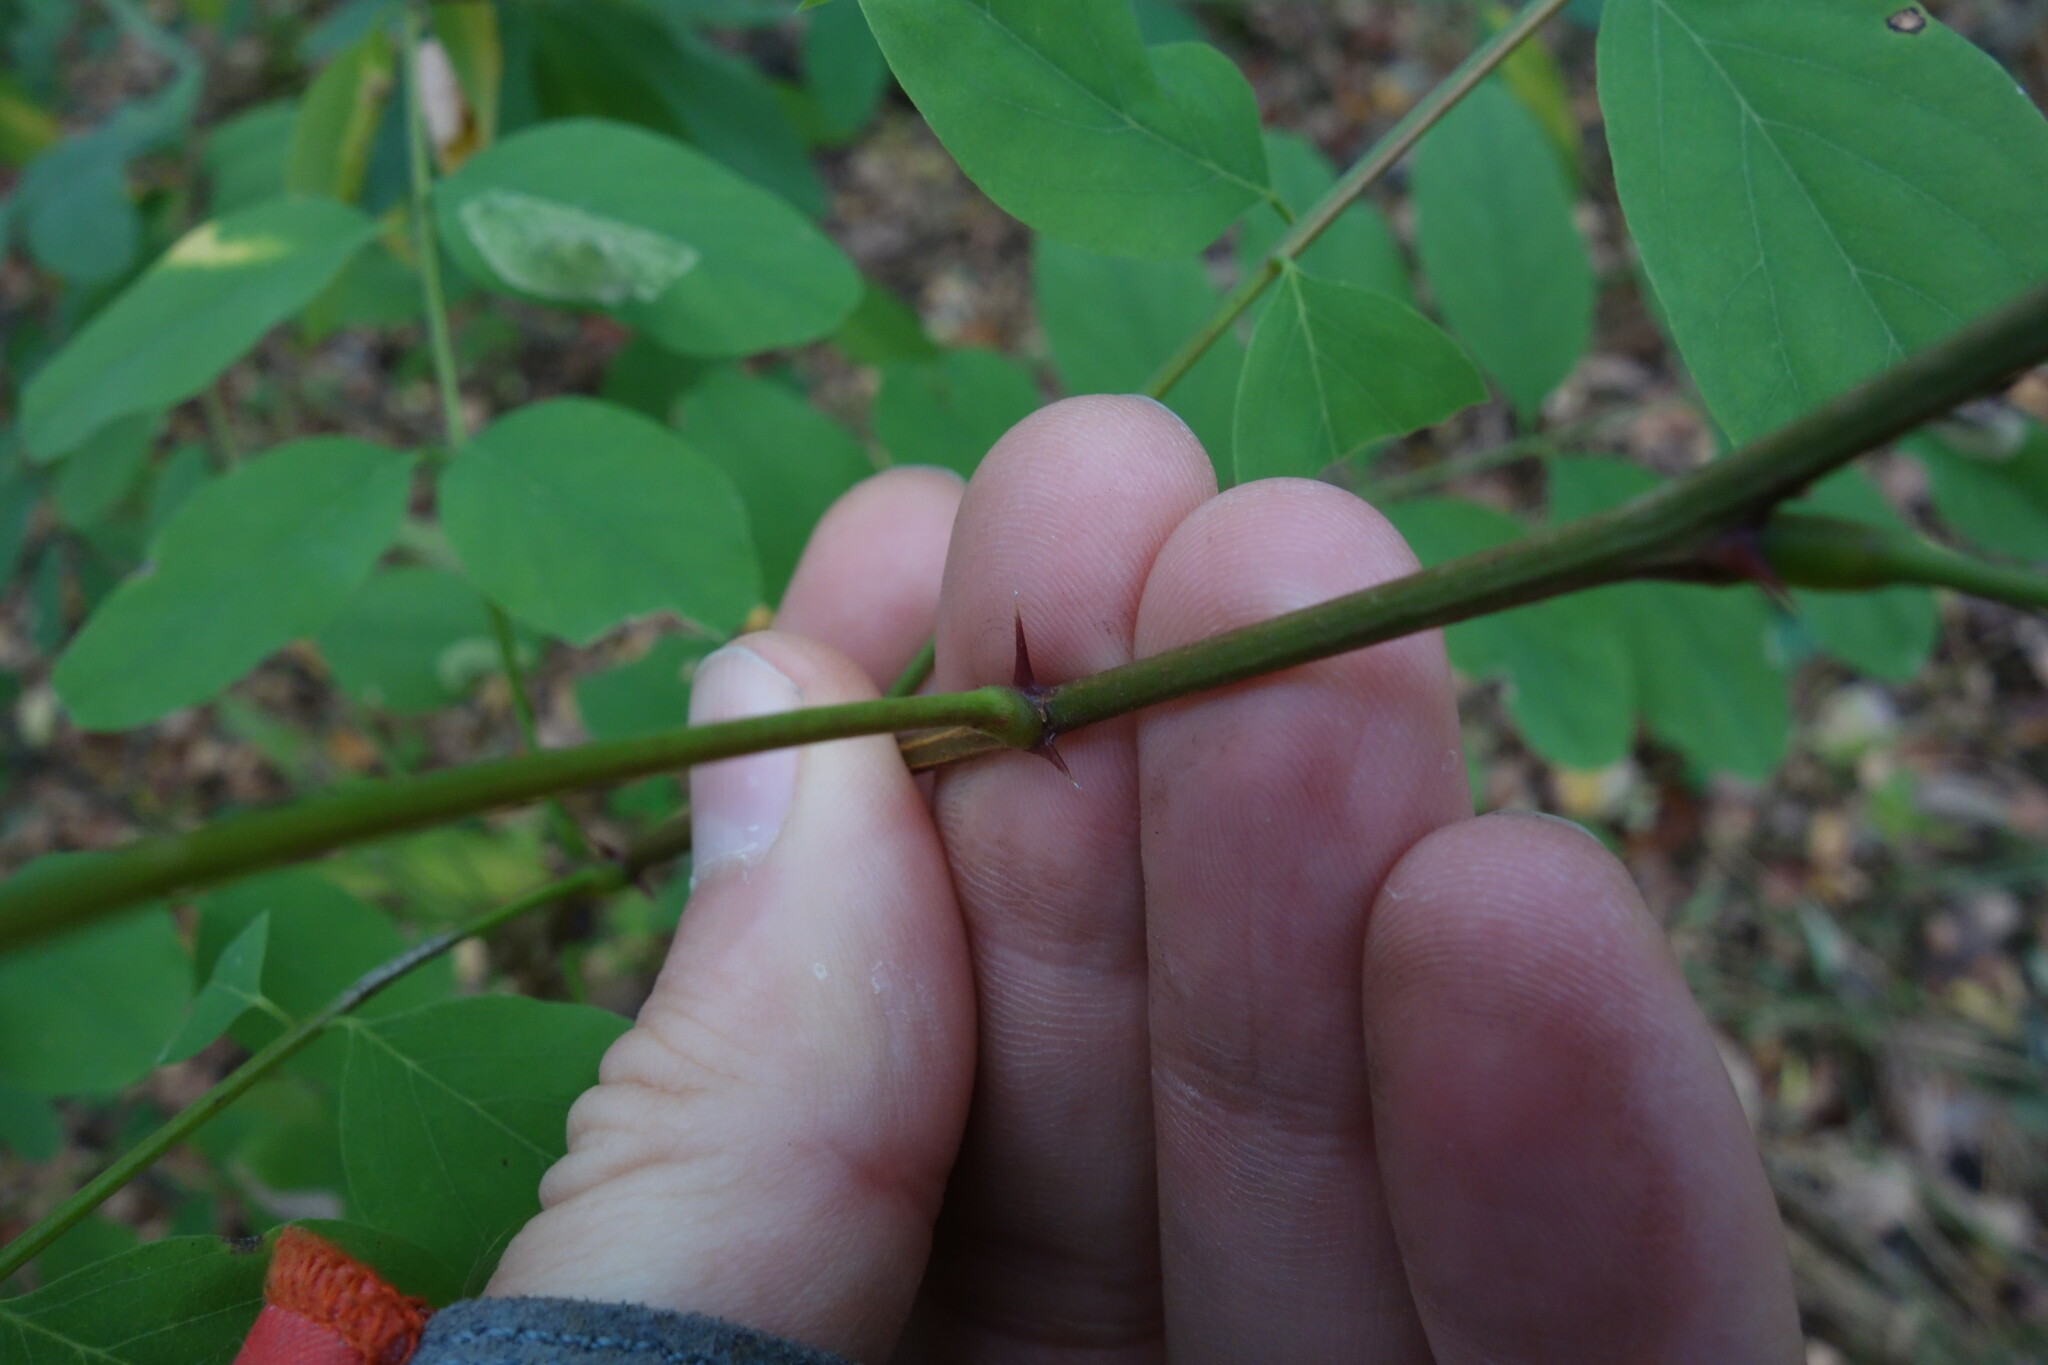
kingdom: Plantae
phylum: Tracheophyta
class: Magnoliopsida
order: Fabales
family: Fabaceae
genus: Robinia
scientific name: Robinia pseudoacacia
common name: Black locust
